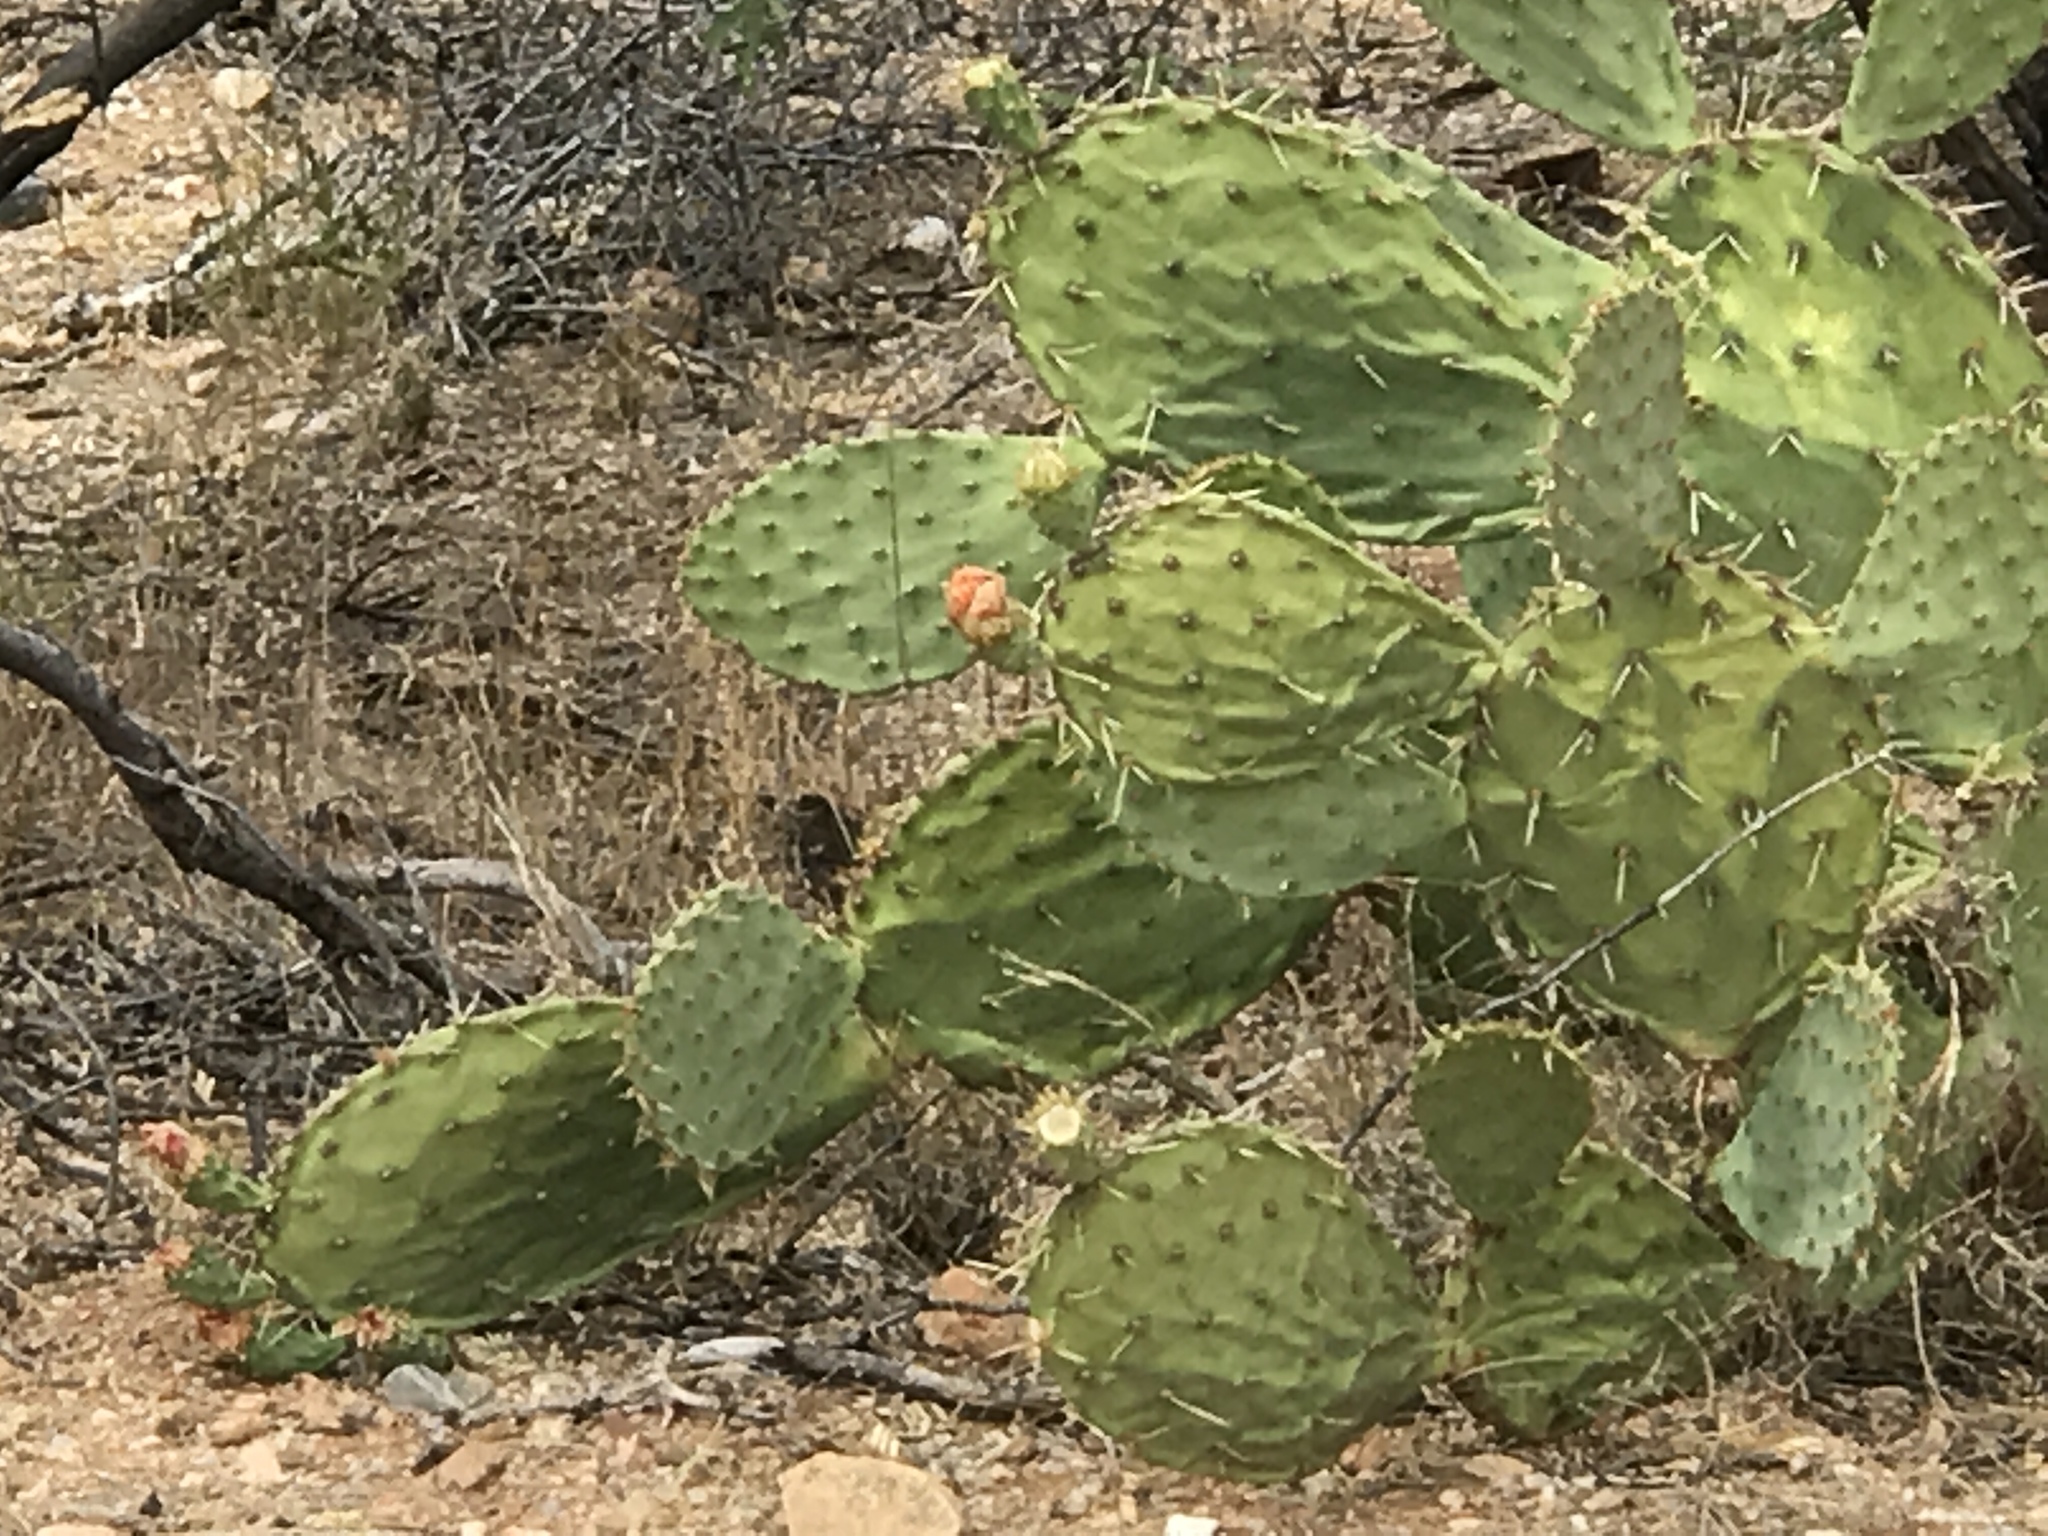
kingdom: Plantae
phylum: Tracheophyta
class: Magnoliopsida
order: Caryophyllales
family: Cactaceae
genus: Opuntia
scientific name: Opuntia engelmannii
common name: Cactus-apple
